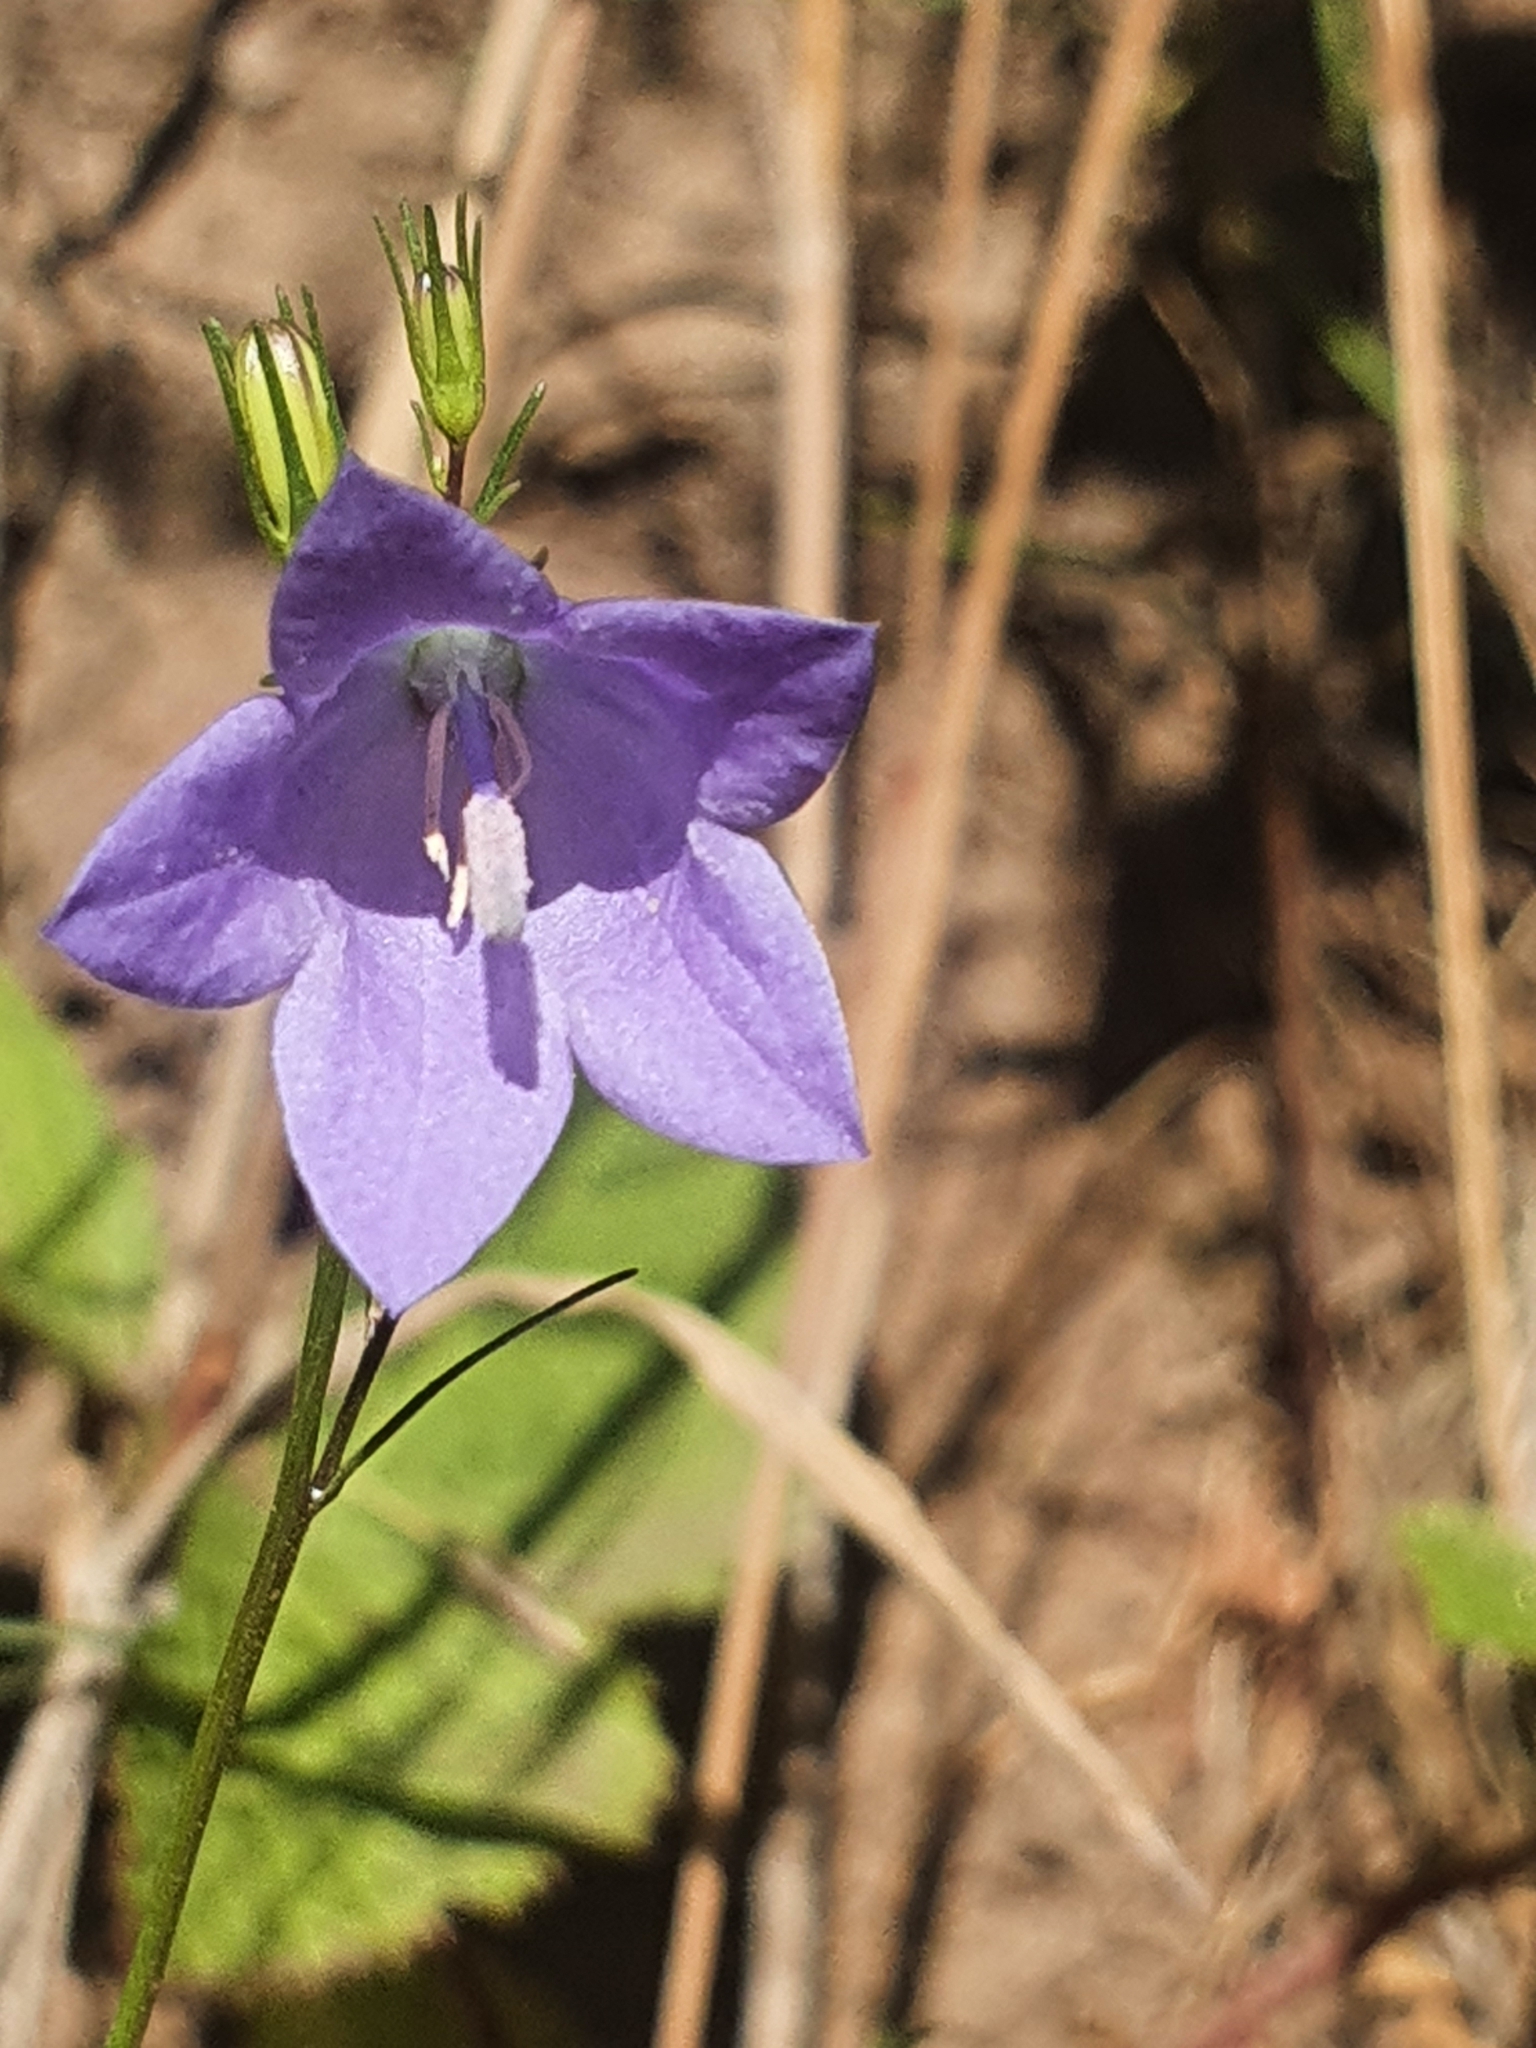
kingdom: Plantae
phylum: Tracheophyta
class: Magnoliopsida
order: Asterales
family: Campanulaceae
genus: Campanula
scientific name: Campanula rotundifolia
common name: Harebell
